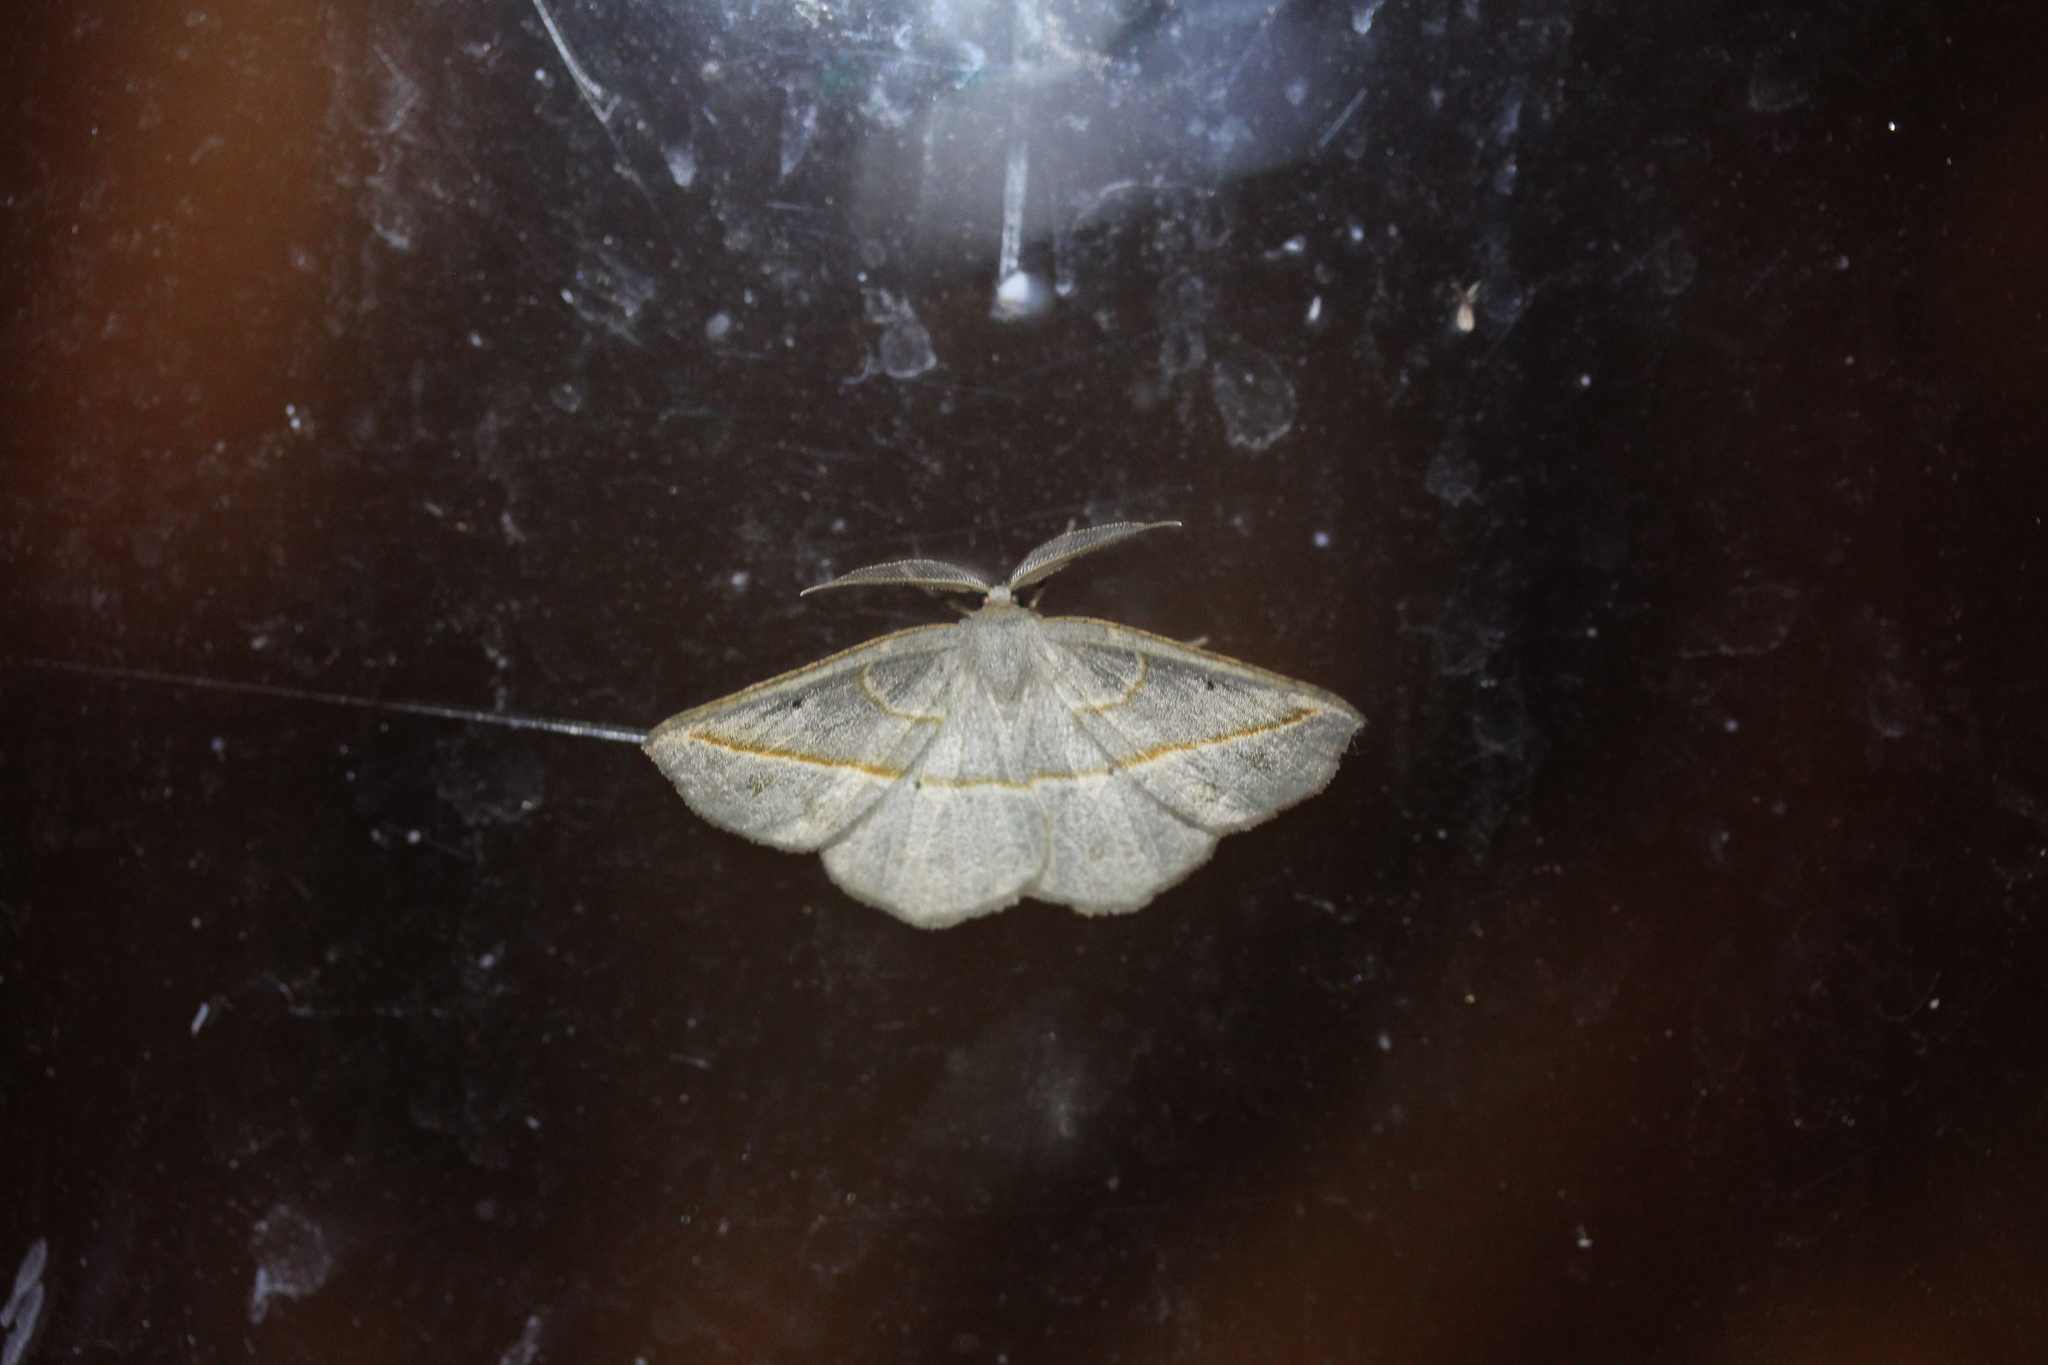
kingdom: Animalia
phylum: Arthropoda
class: Insecta
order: Lepidoptera
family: Geometridae
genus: Eusarca
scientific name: Eusarca confusaria
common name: Confused eusarca
